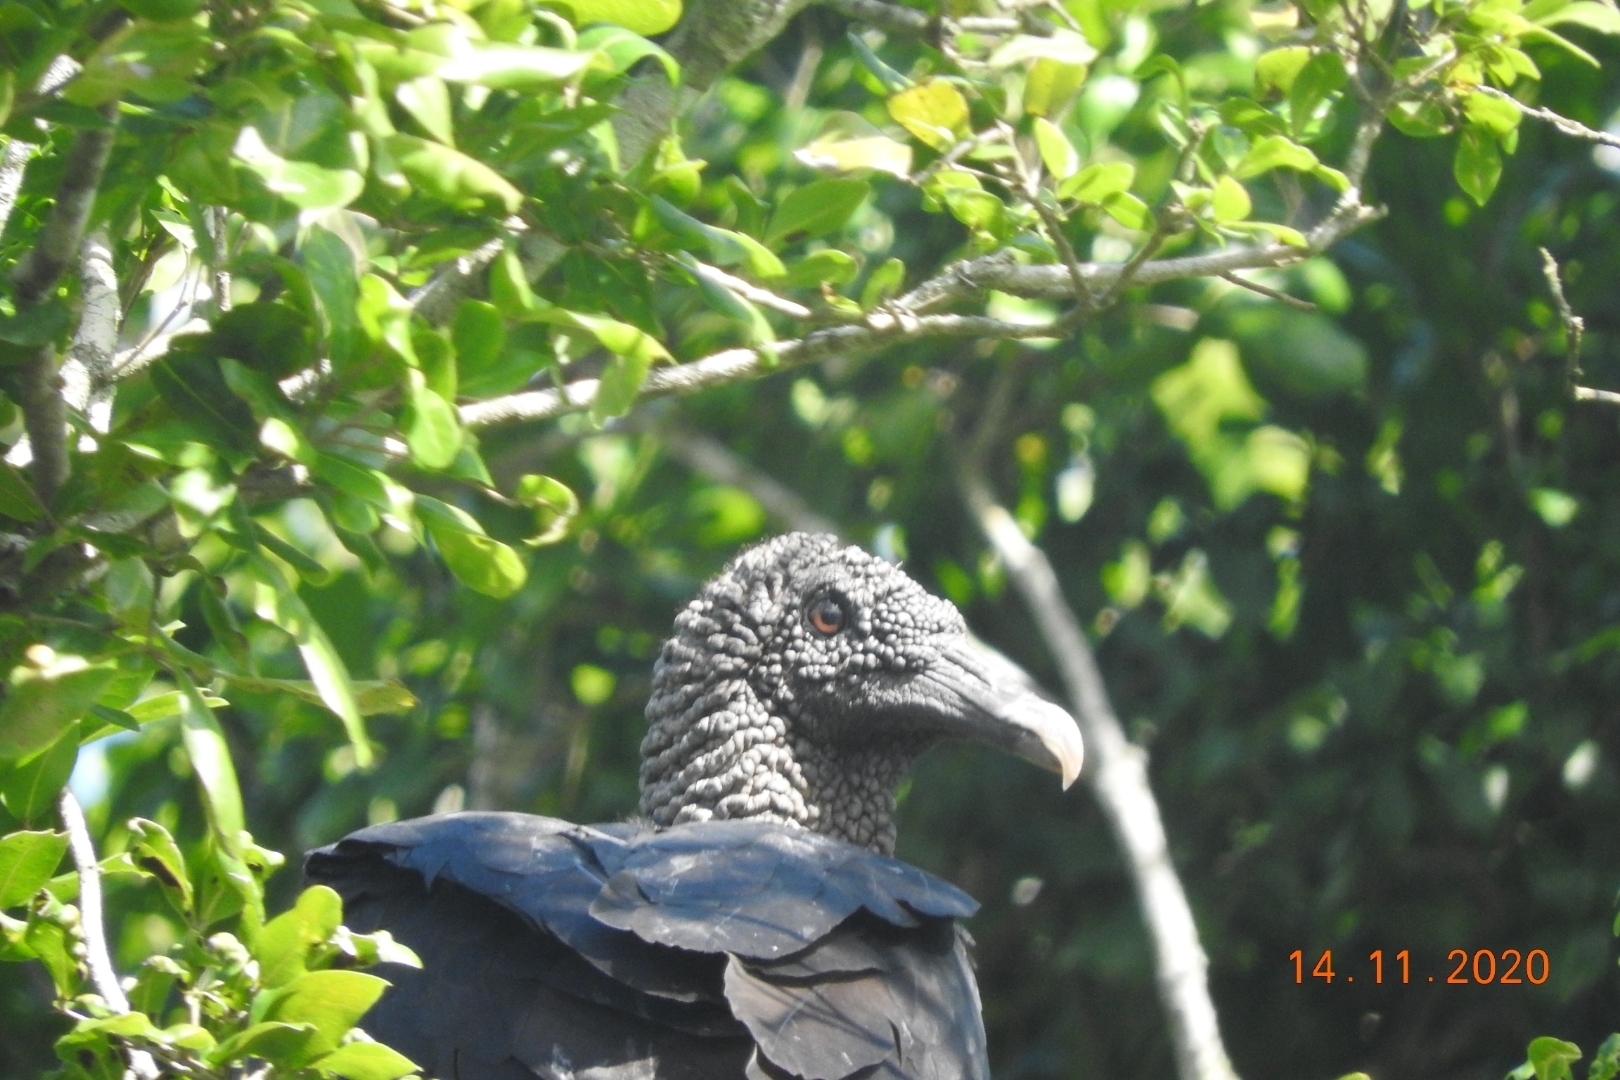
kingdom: Animalia
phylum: Chordata
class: Aves
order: Accipitriformes
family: Cathartidae
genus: Coragyps
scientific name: Coragyps atratus
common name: Black vulture
